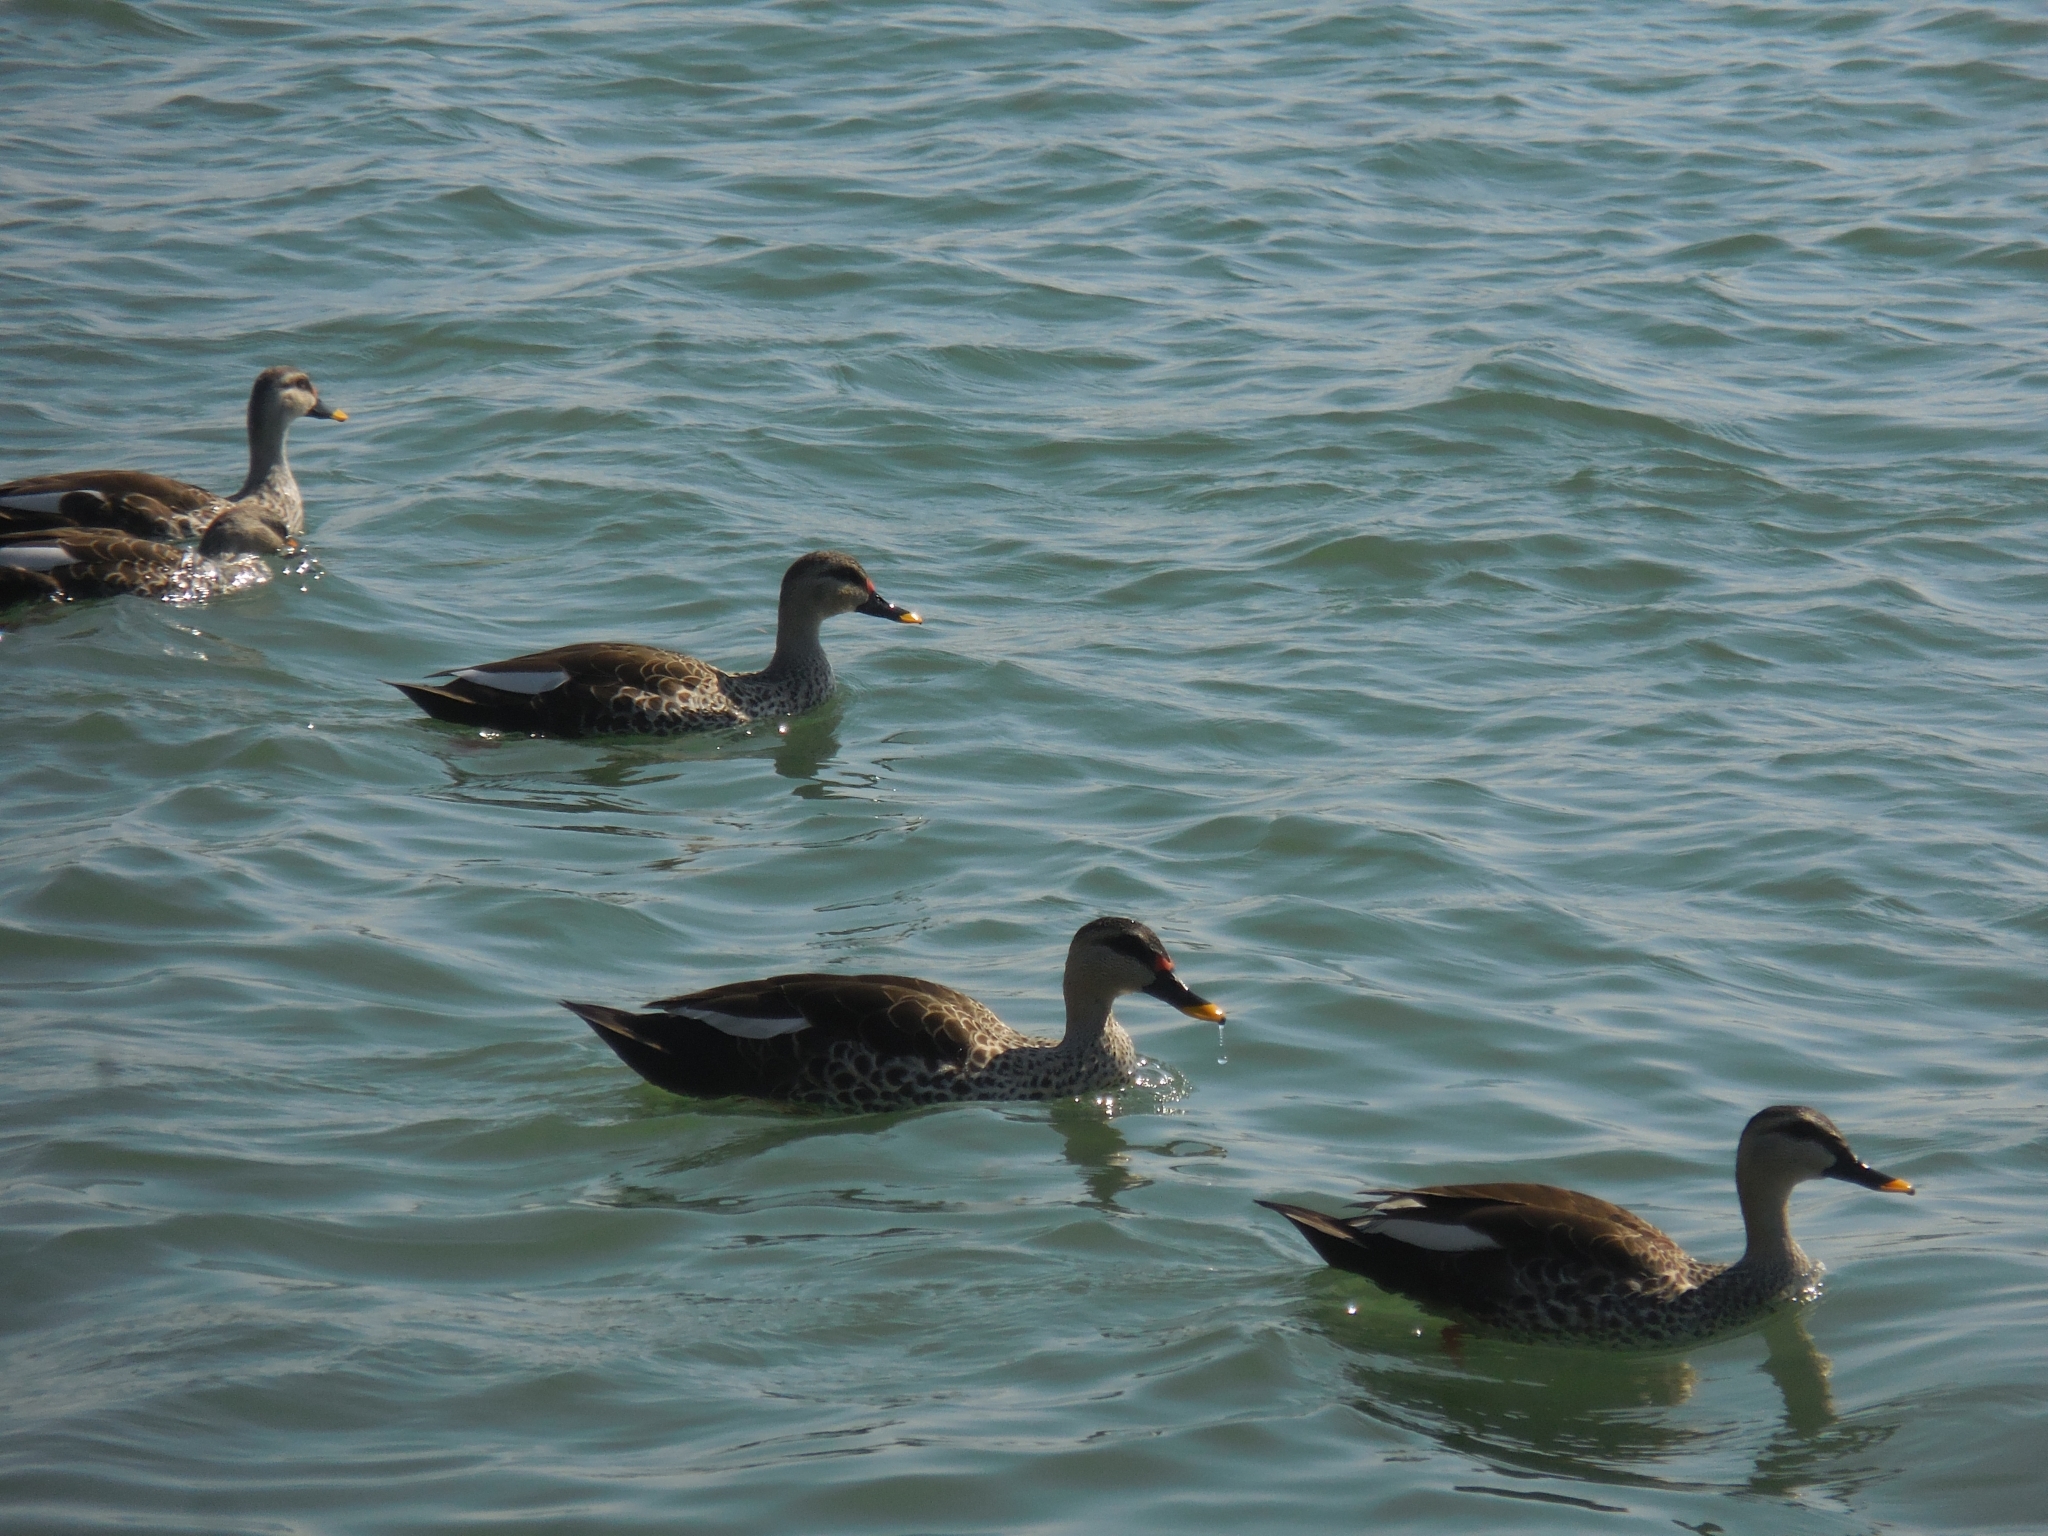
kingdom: Animalia
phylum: Chordata
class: Aves
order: Anseriformes
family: Anatidae
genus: Anas
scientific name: Anas poecilorhyncha
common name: Indian spot-billed duck
